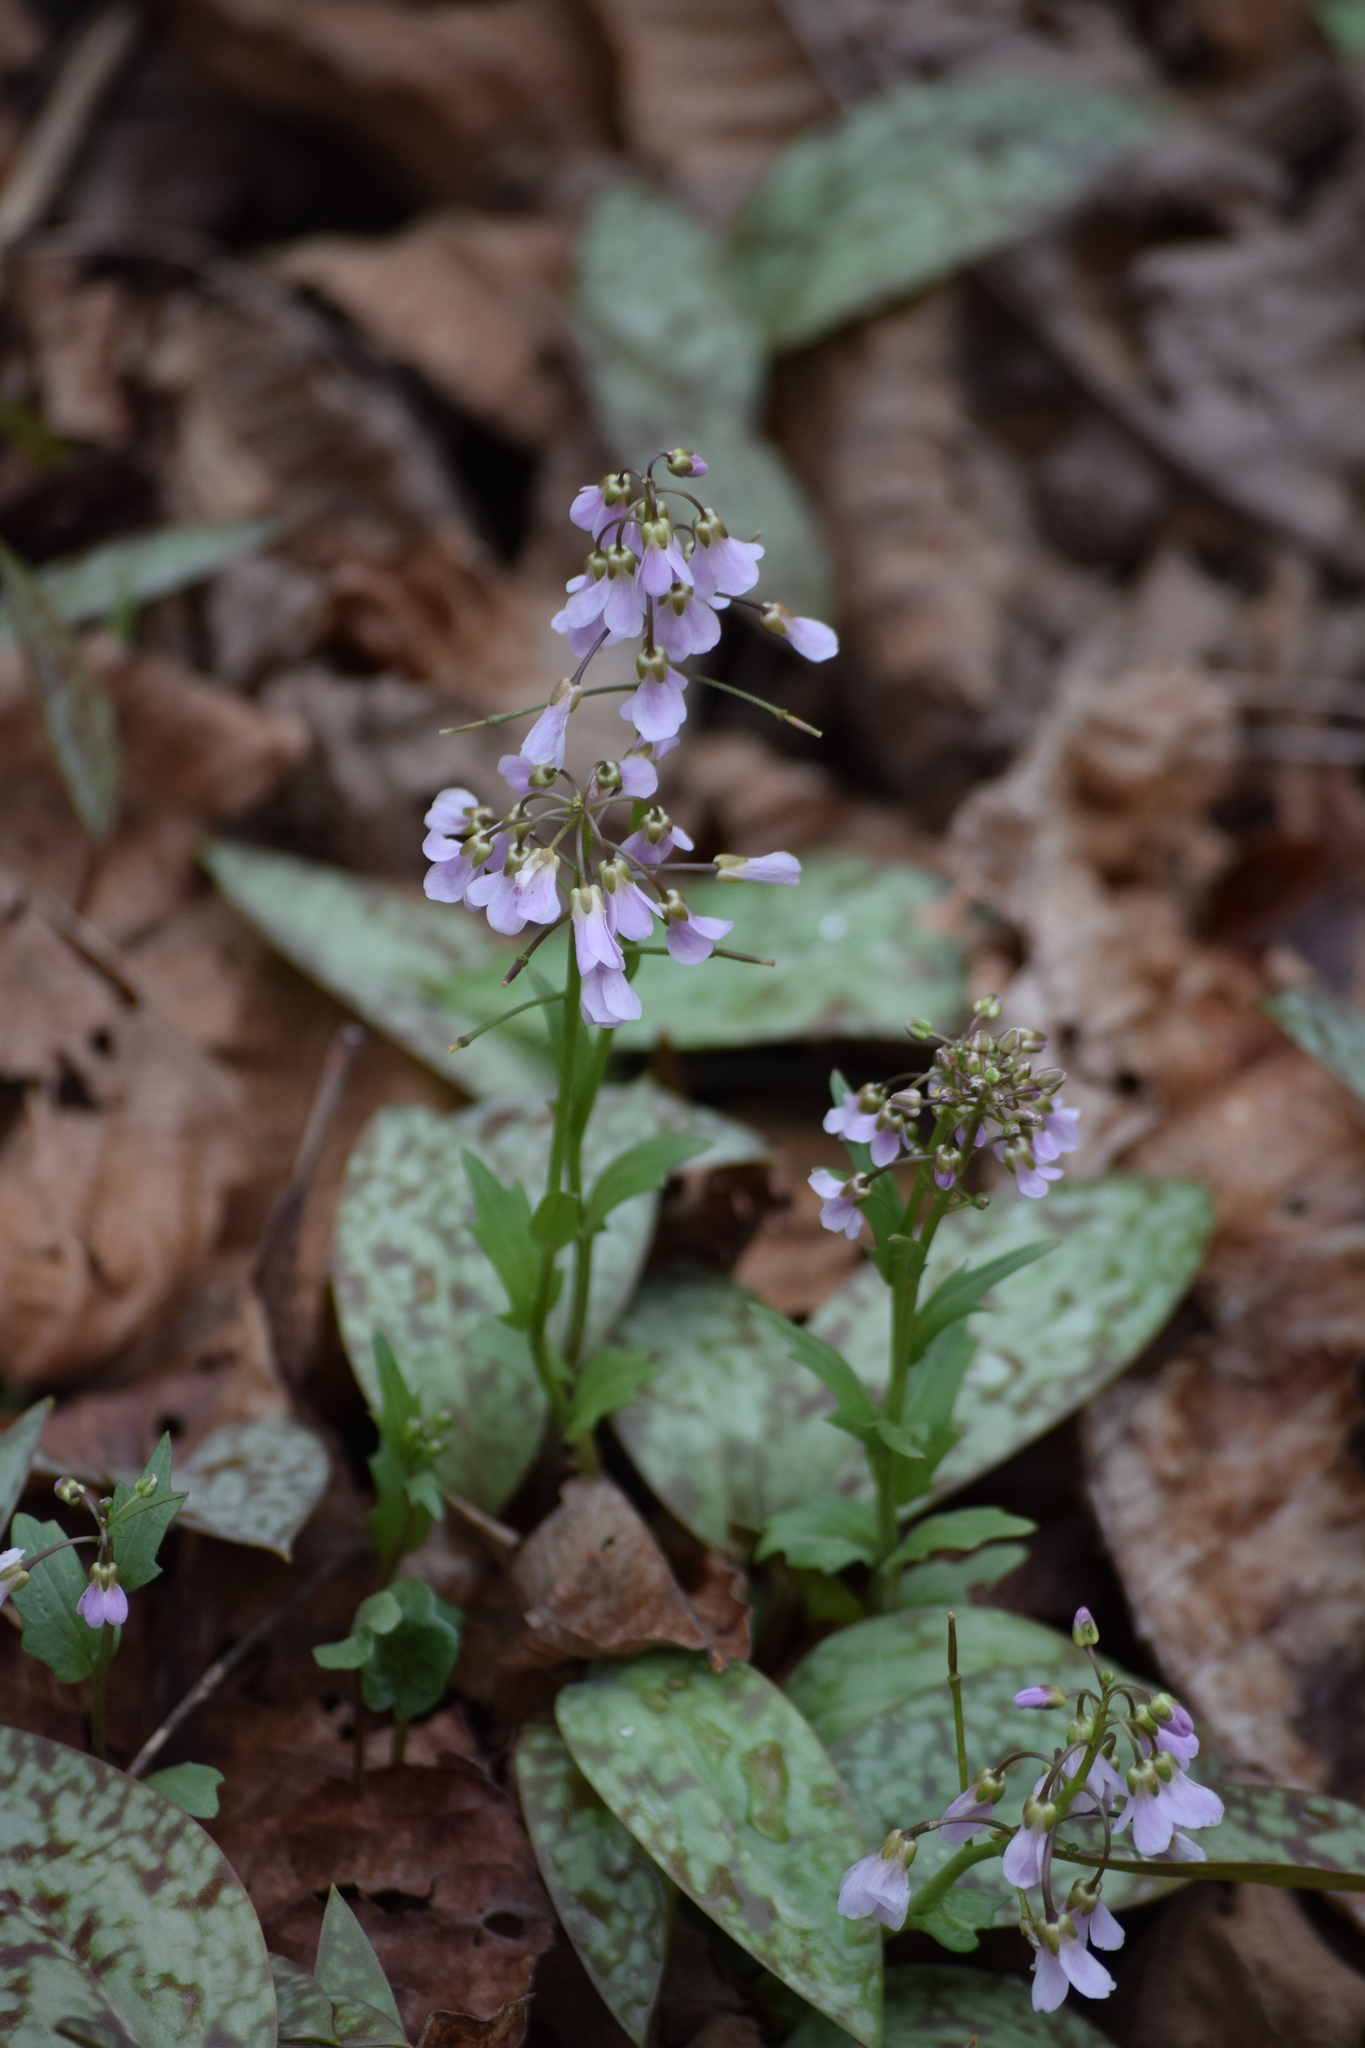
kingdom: Plantae
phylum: Tracheophyta
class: Magnoliopsida
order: Brassicales
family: Brassicaceae
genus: Cardamine
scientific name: Cardamine douglassii
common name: Purple cress
